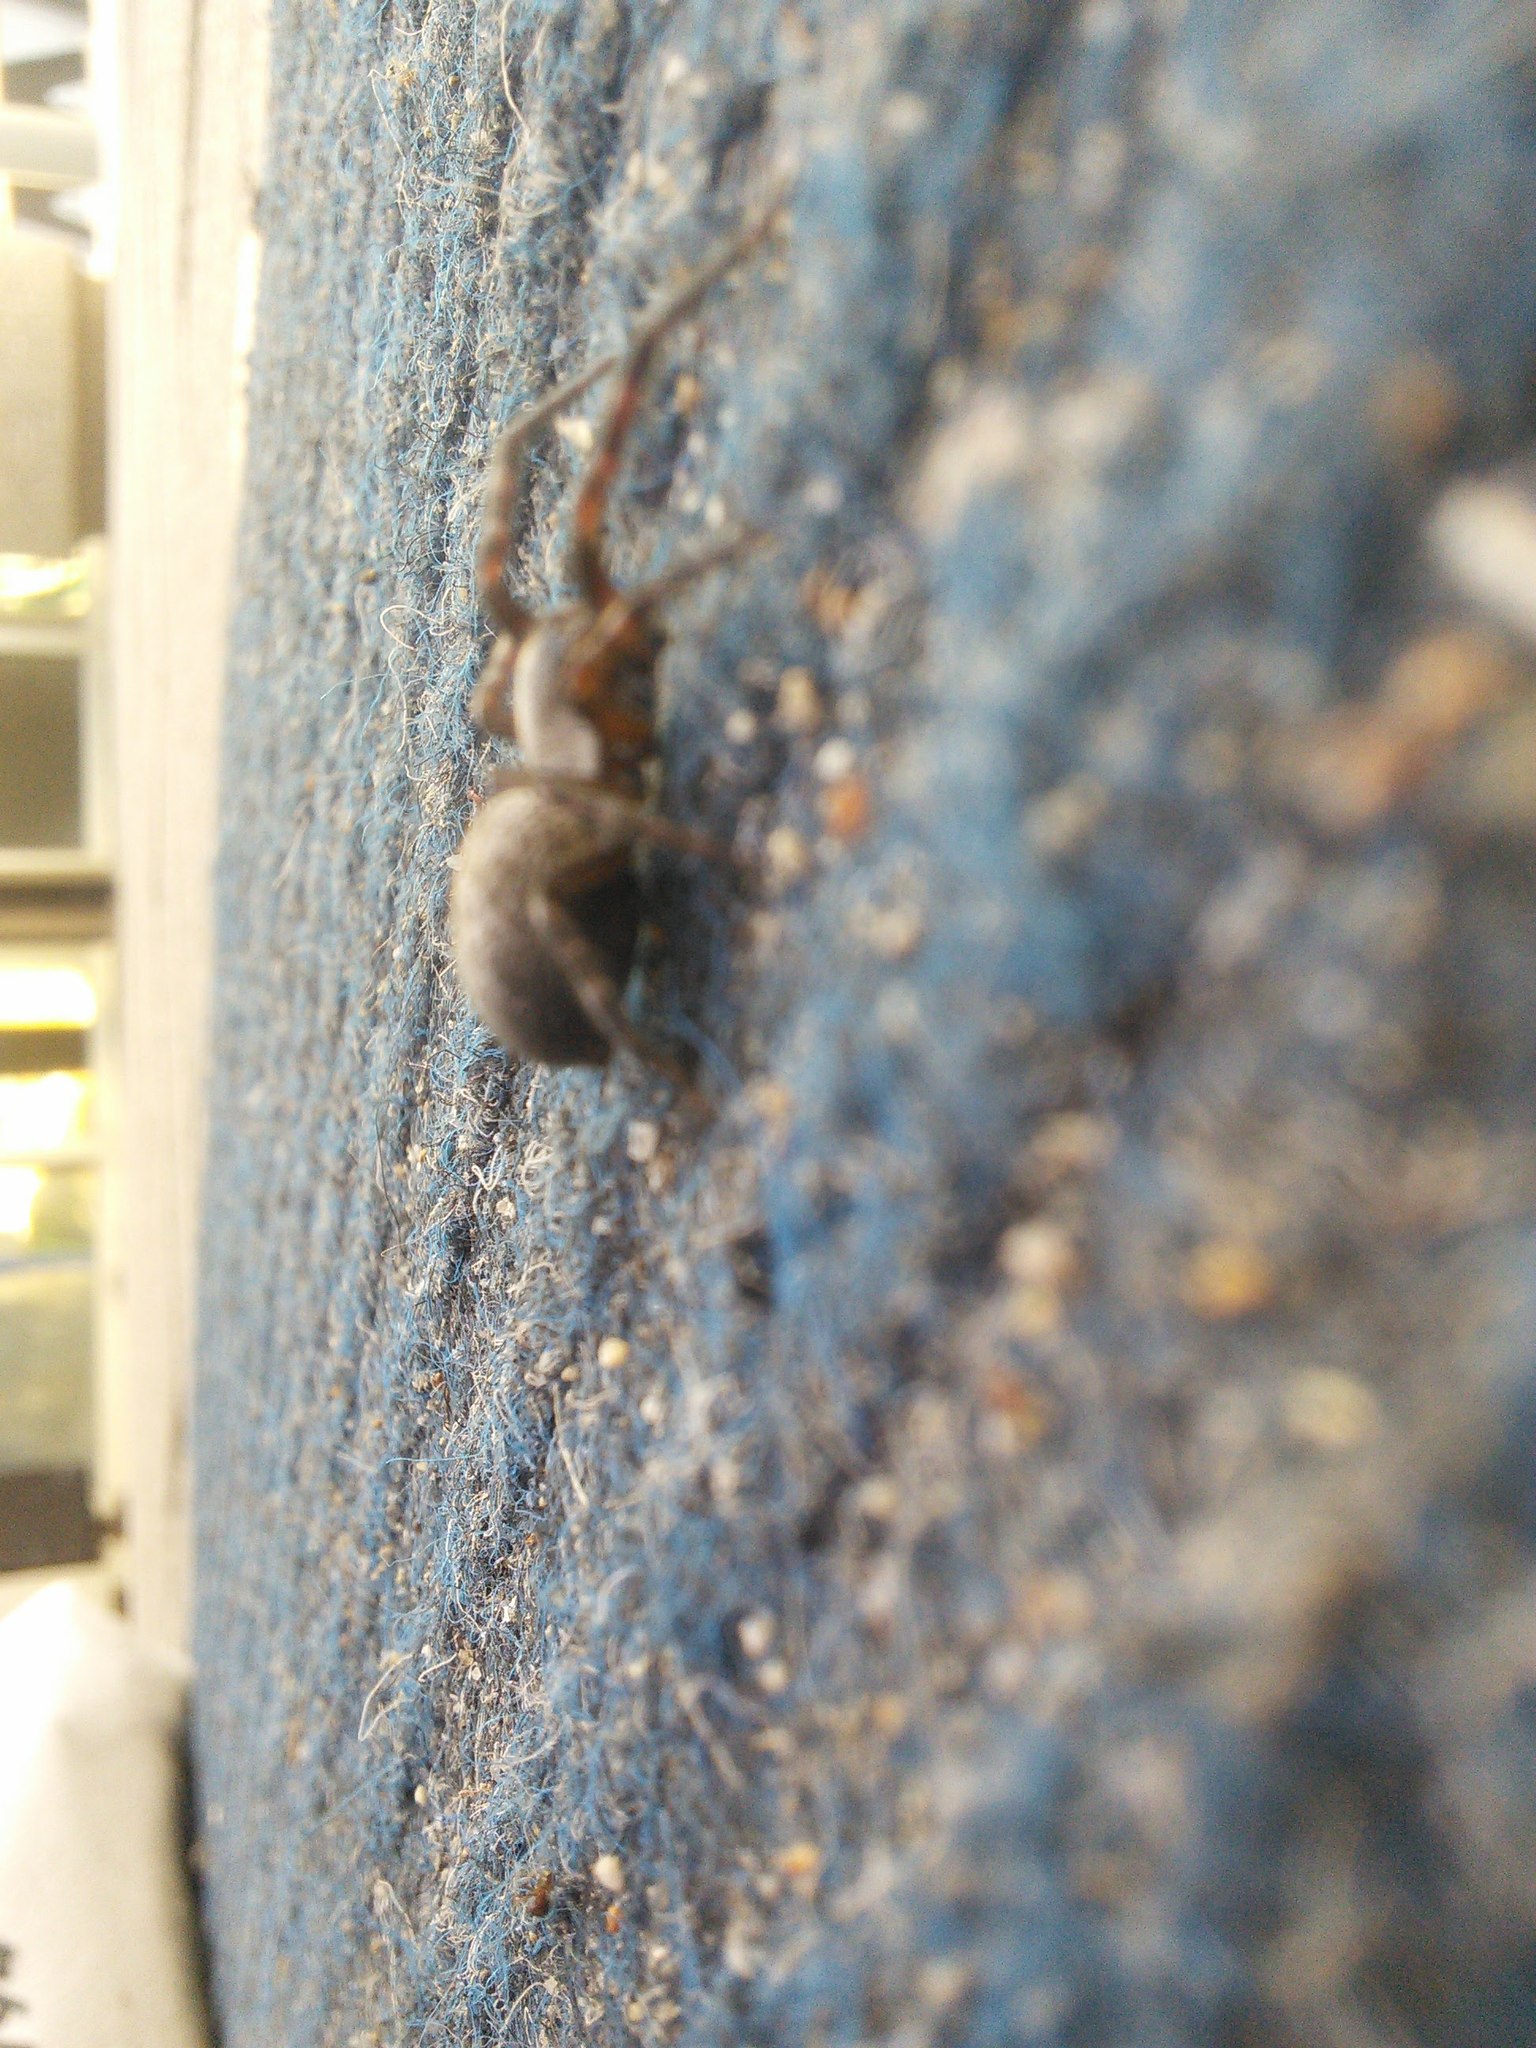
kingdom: Animalia
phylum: Arthropoda
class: Arachnida
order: Araneae
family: Desidae
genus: Badumna
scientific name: Badumna longinqua
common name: Gray house spider
